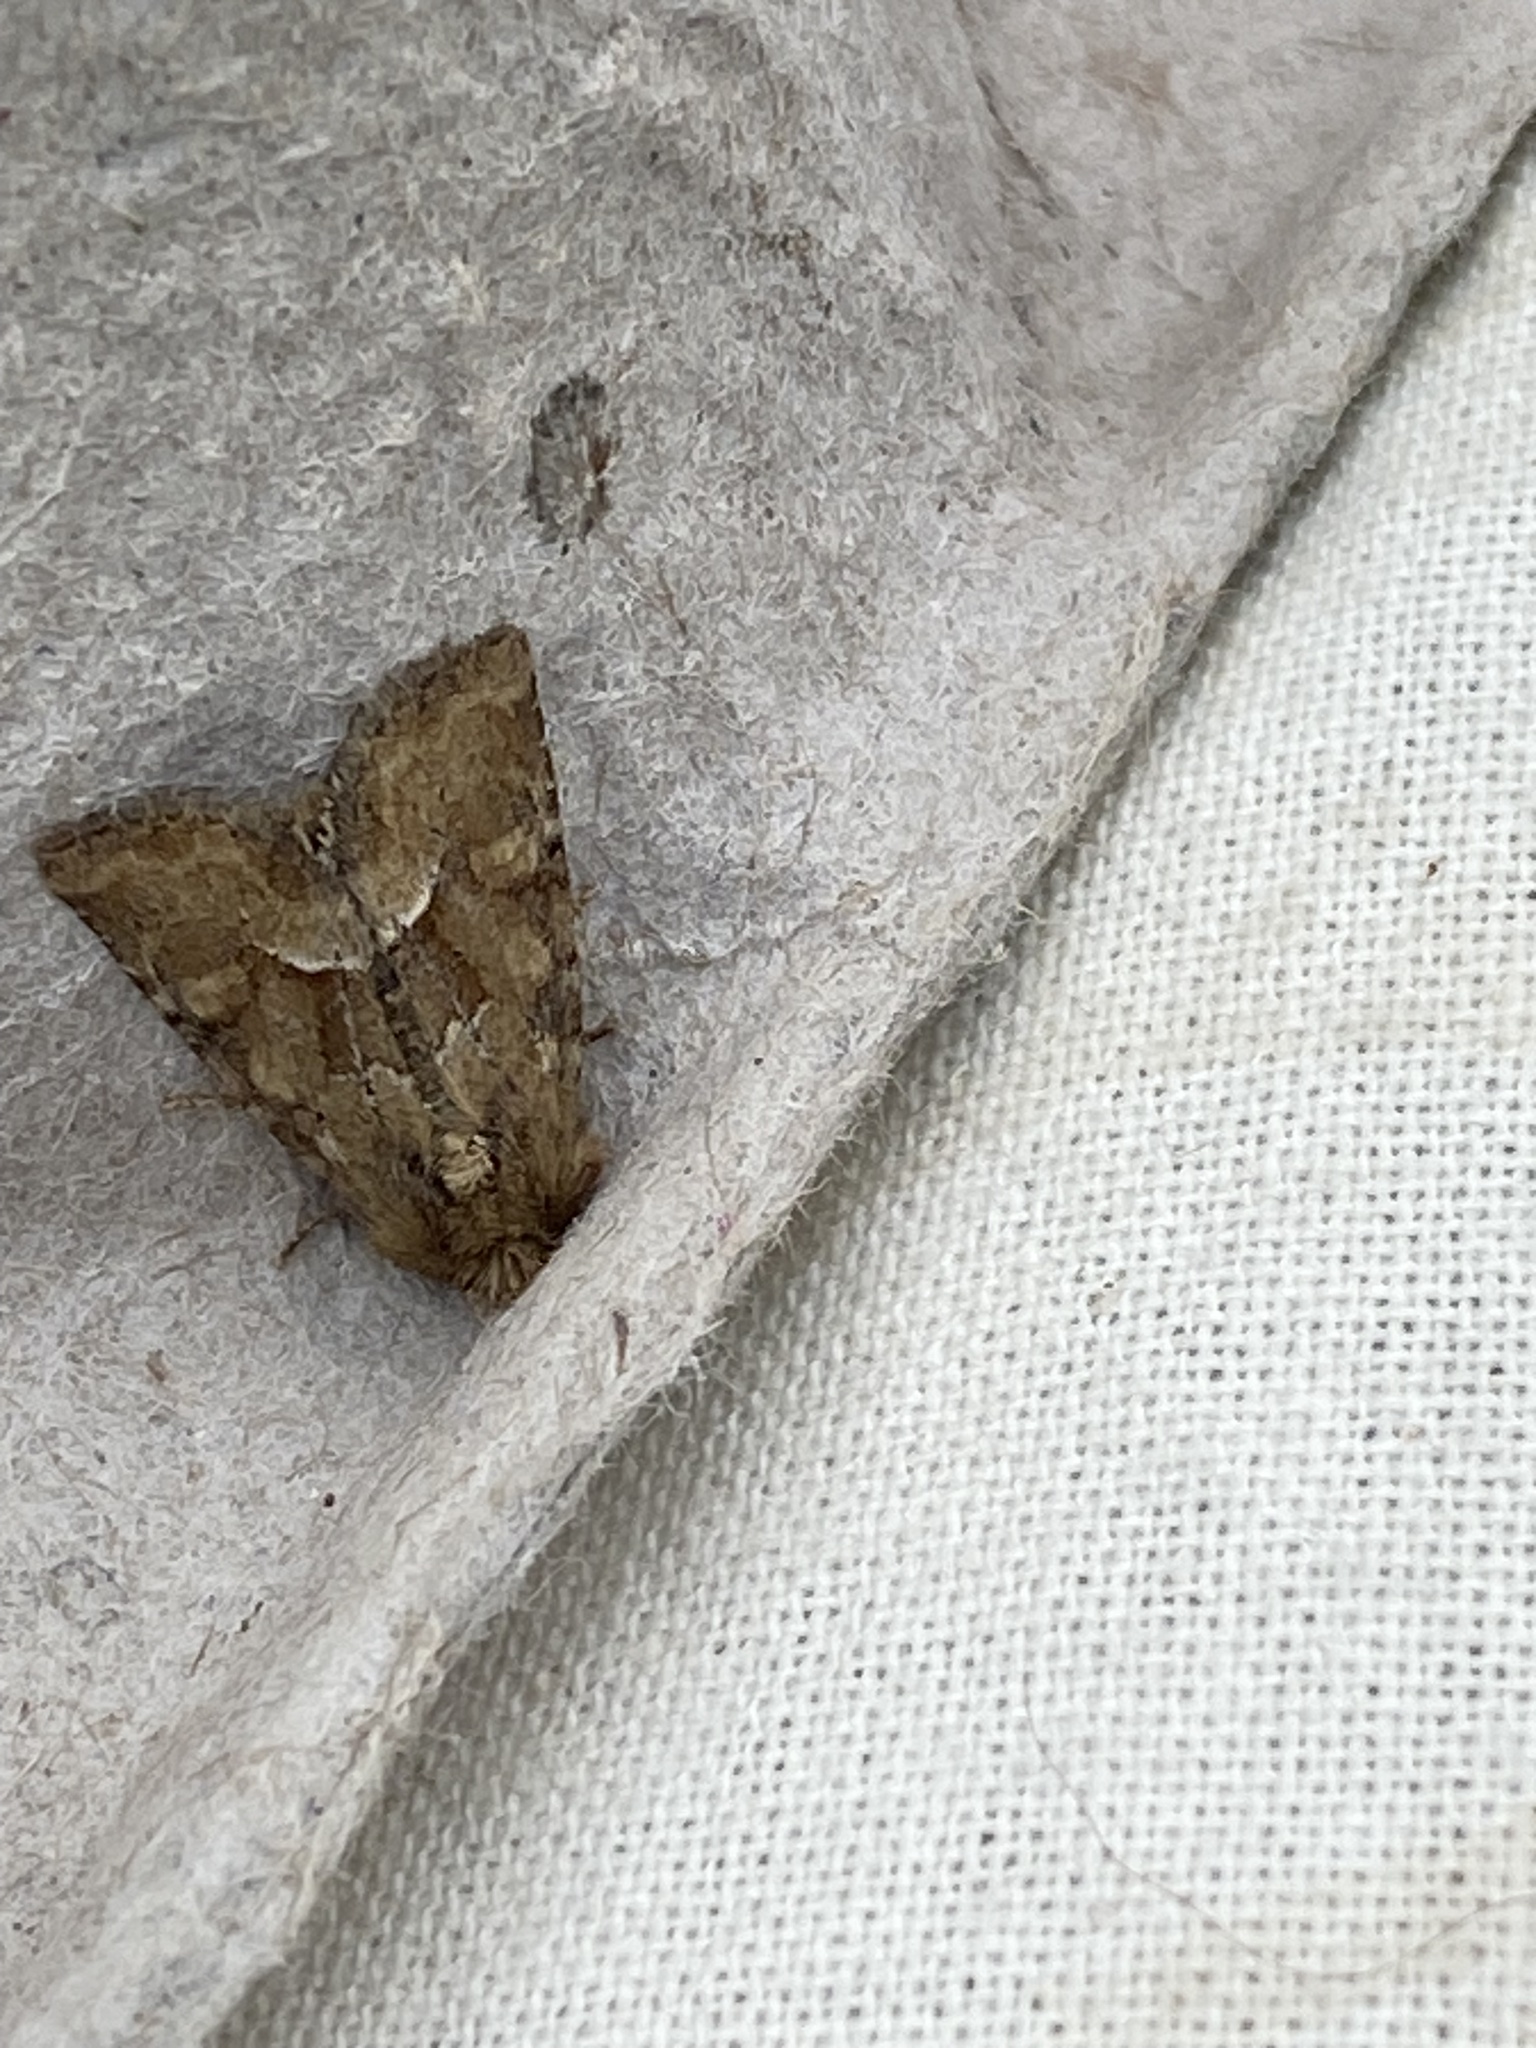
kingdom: Animalia
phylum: Arthropoda
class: Insecta
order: Lepidoptera
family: Noctuidae
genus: Oligia
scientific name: Oligia fasciuncula
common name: Middle-barred minor
